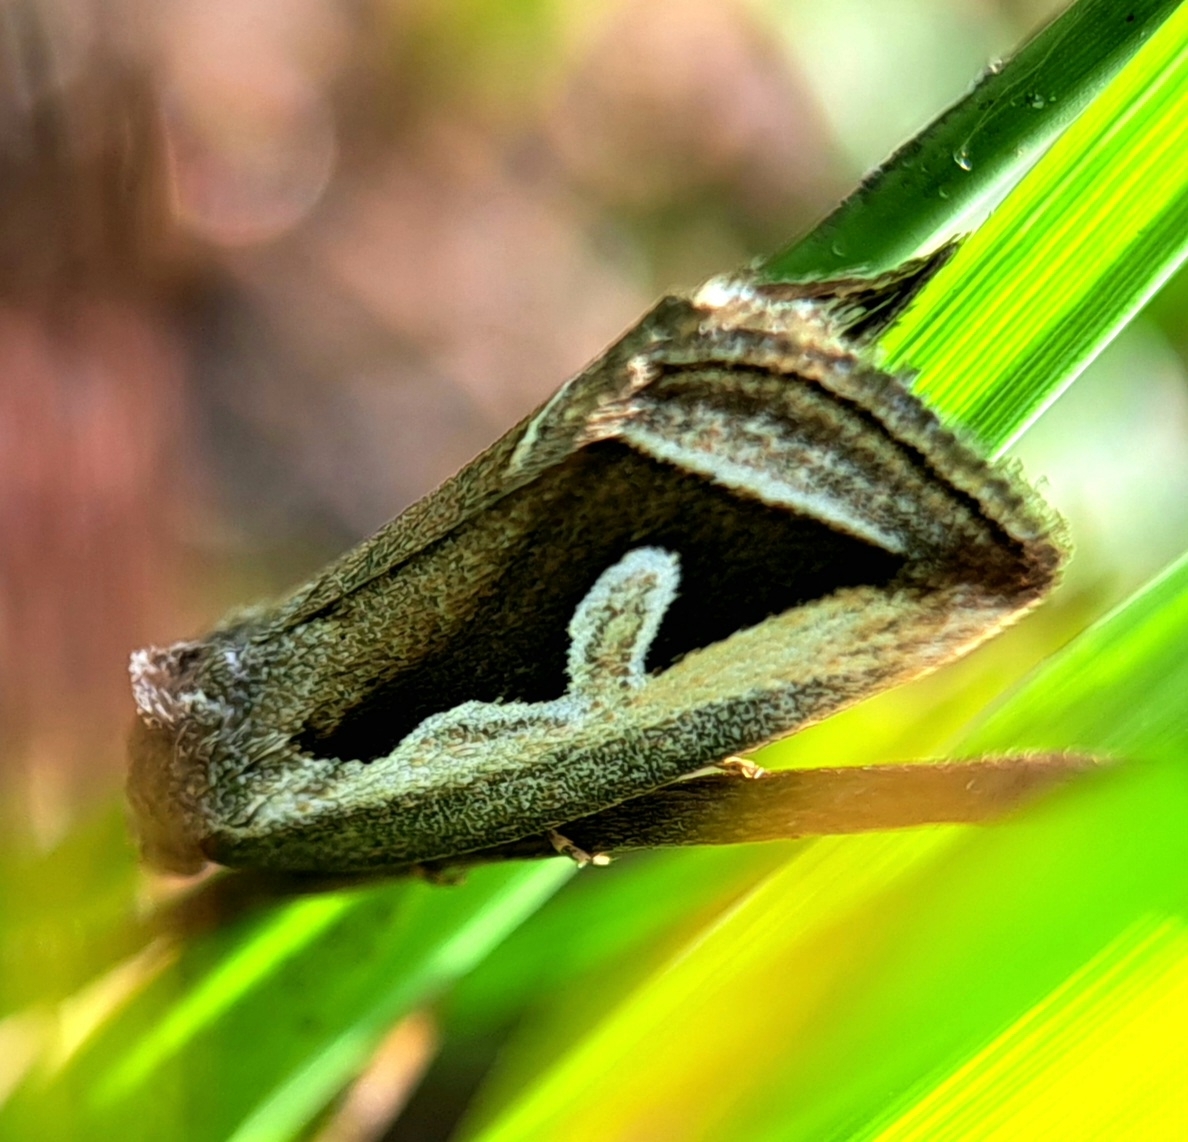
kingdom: Animalia
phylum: Arthropoda
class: Insecta
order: Lepidoptera
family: Noctuidae
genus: Deltote
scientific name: Deltote uncula
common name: Silver hook
